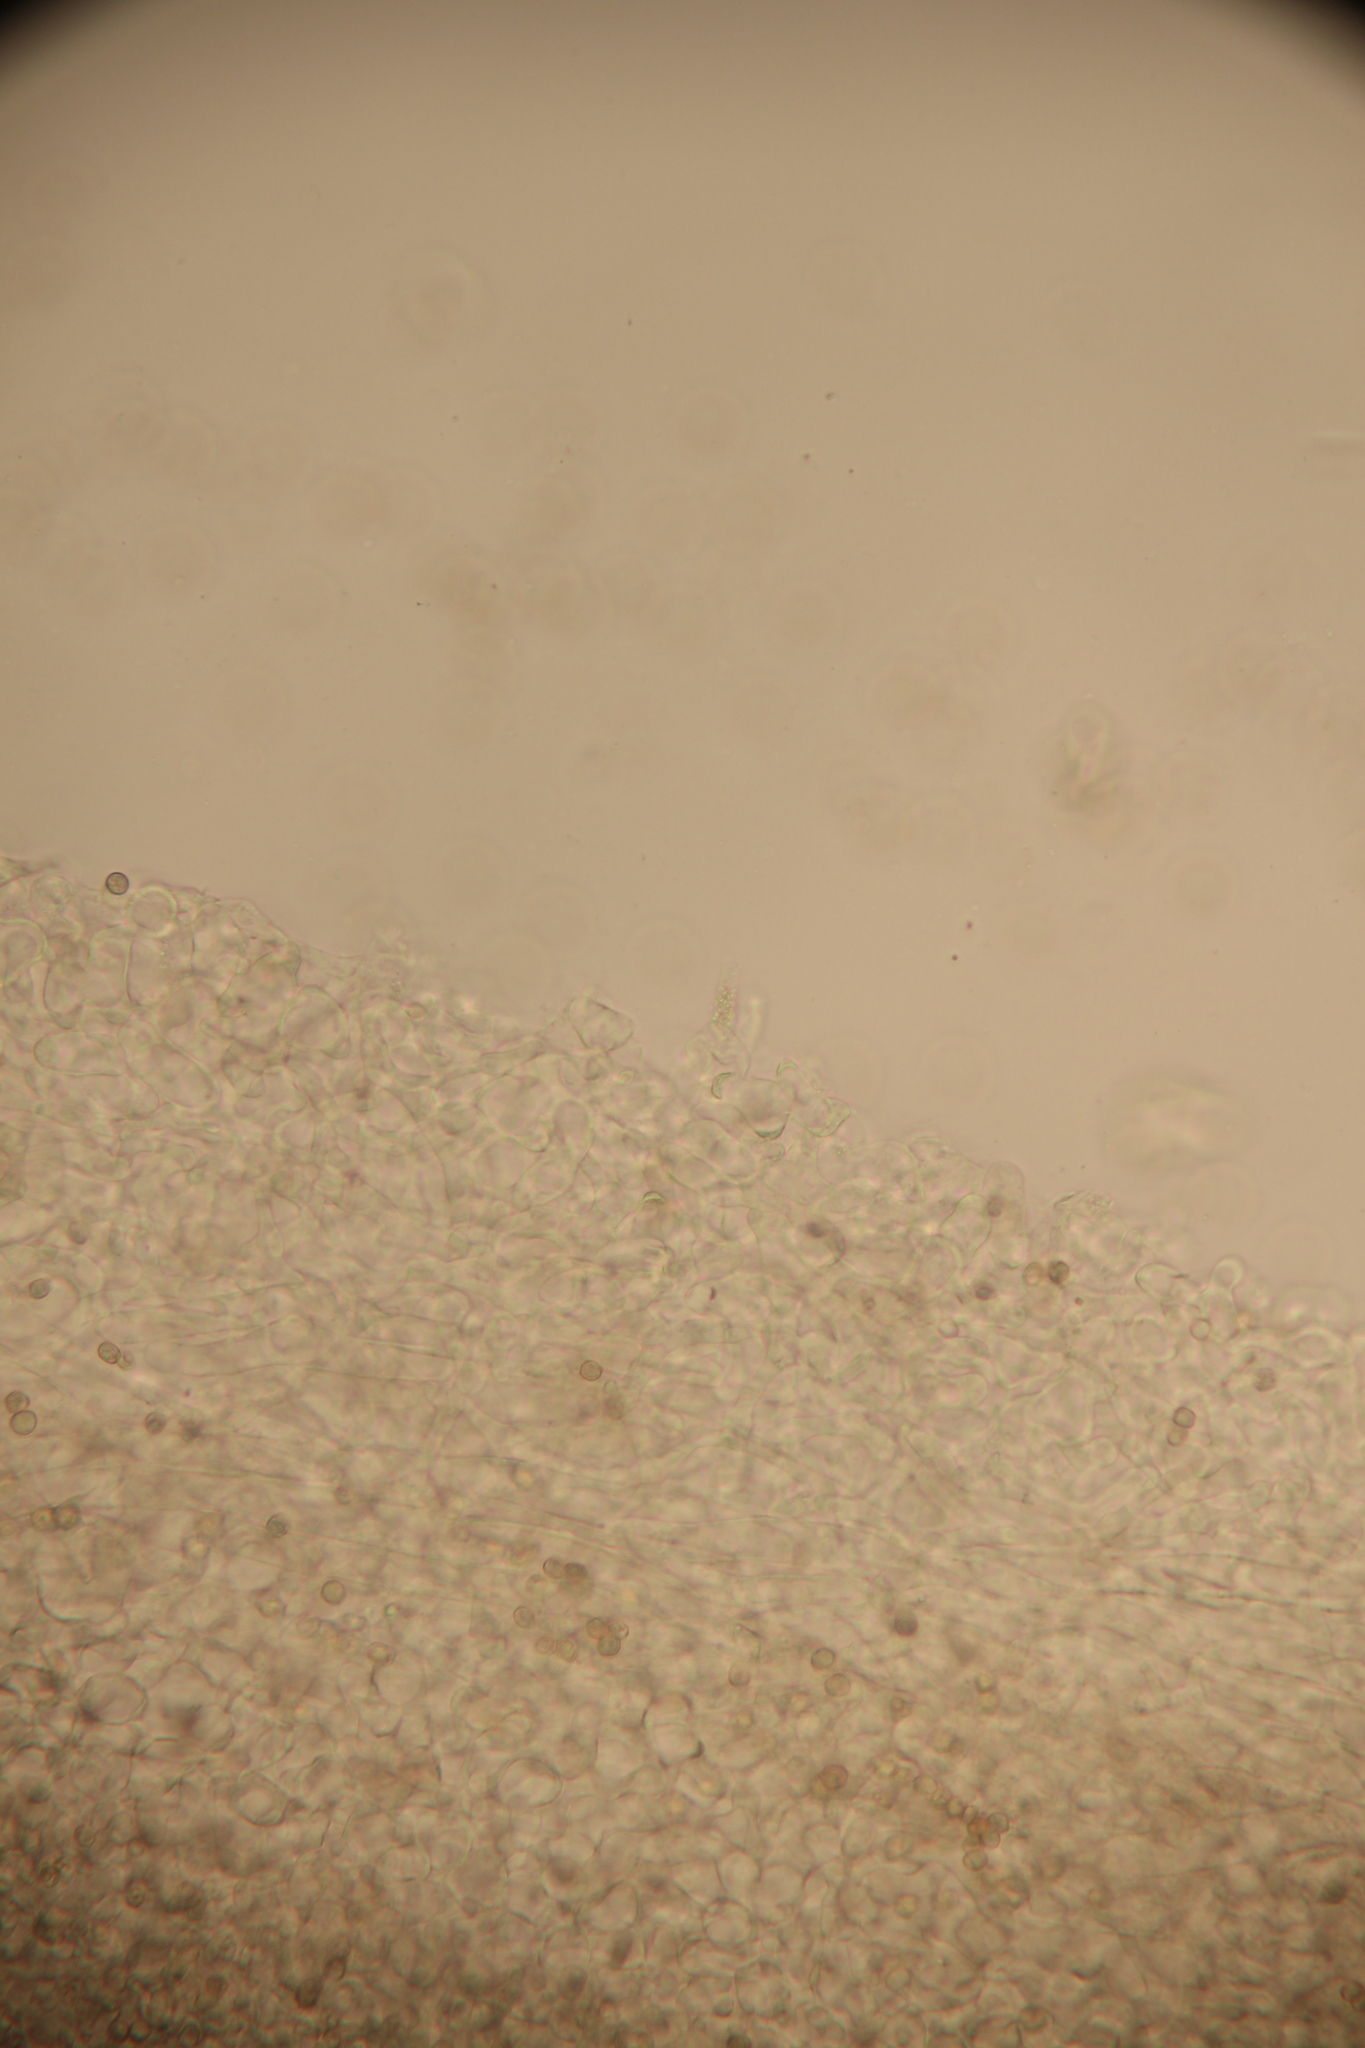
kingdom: Fungi
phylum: Basidiomycota
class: Agaricomycetes
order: Agaricales
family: Pluteaceae
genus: Pluteus
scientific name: Pluteus plautus
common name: Satin shield
